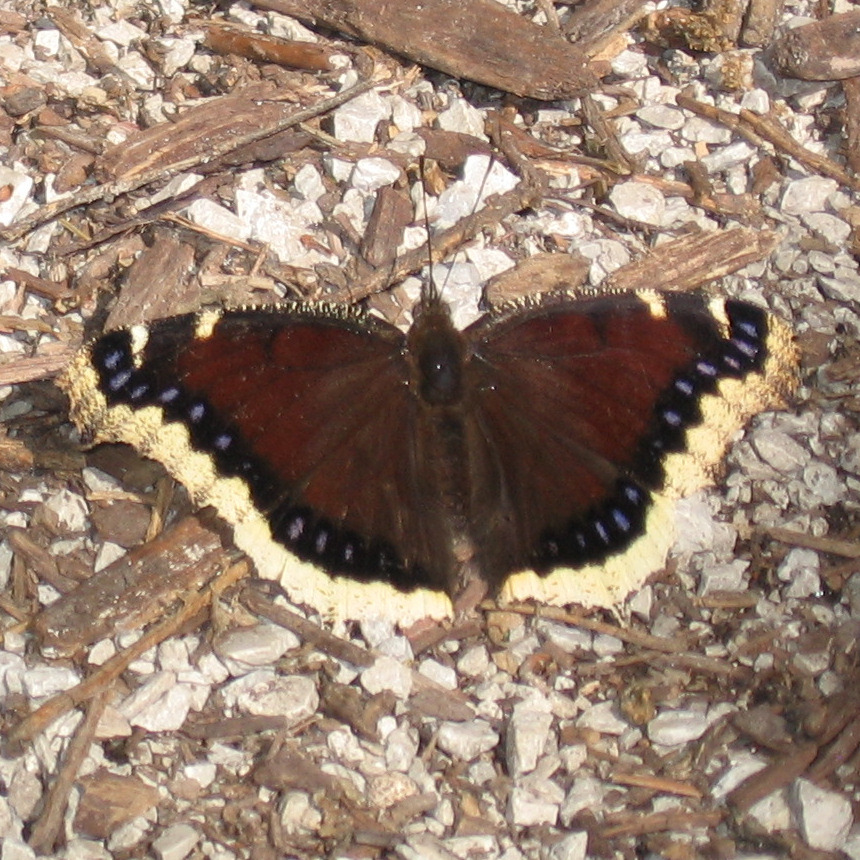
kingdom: Animalia
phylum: Arthropoda
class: Insecta
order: Lepidoptera
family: Nymphalidae
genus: Nymphalis
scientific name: Nymphalis antiopa
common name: Camberwell beauty
